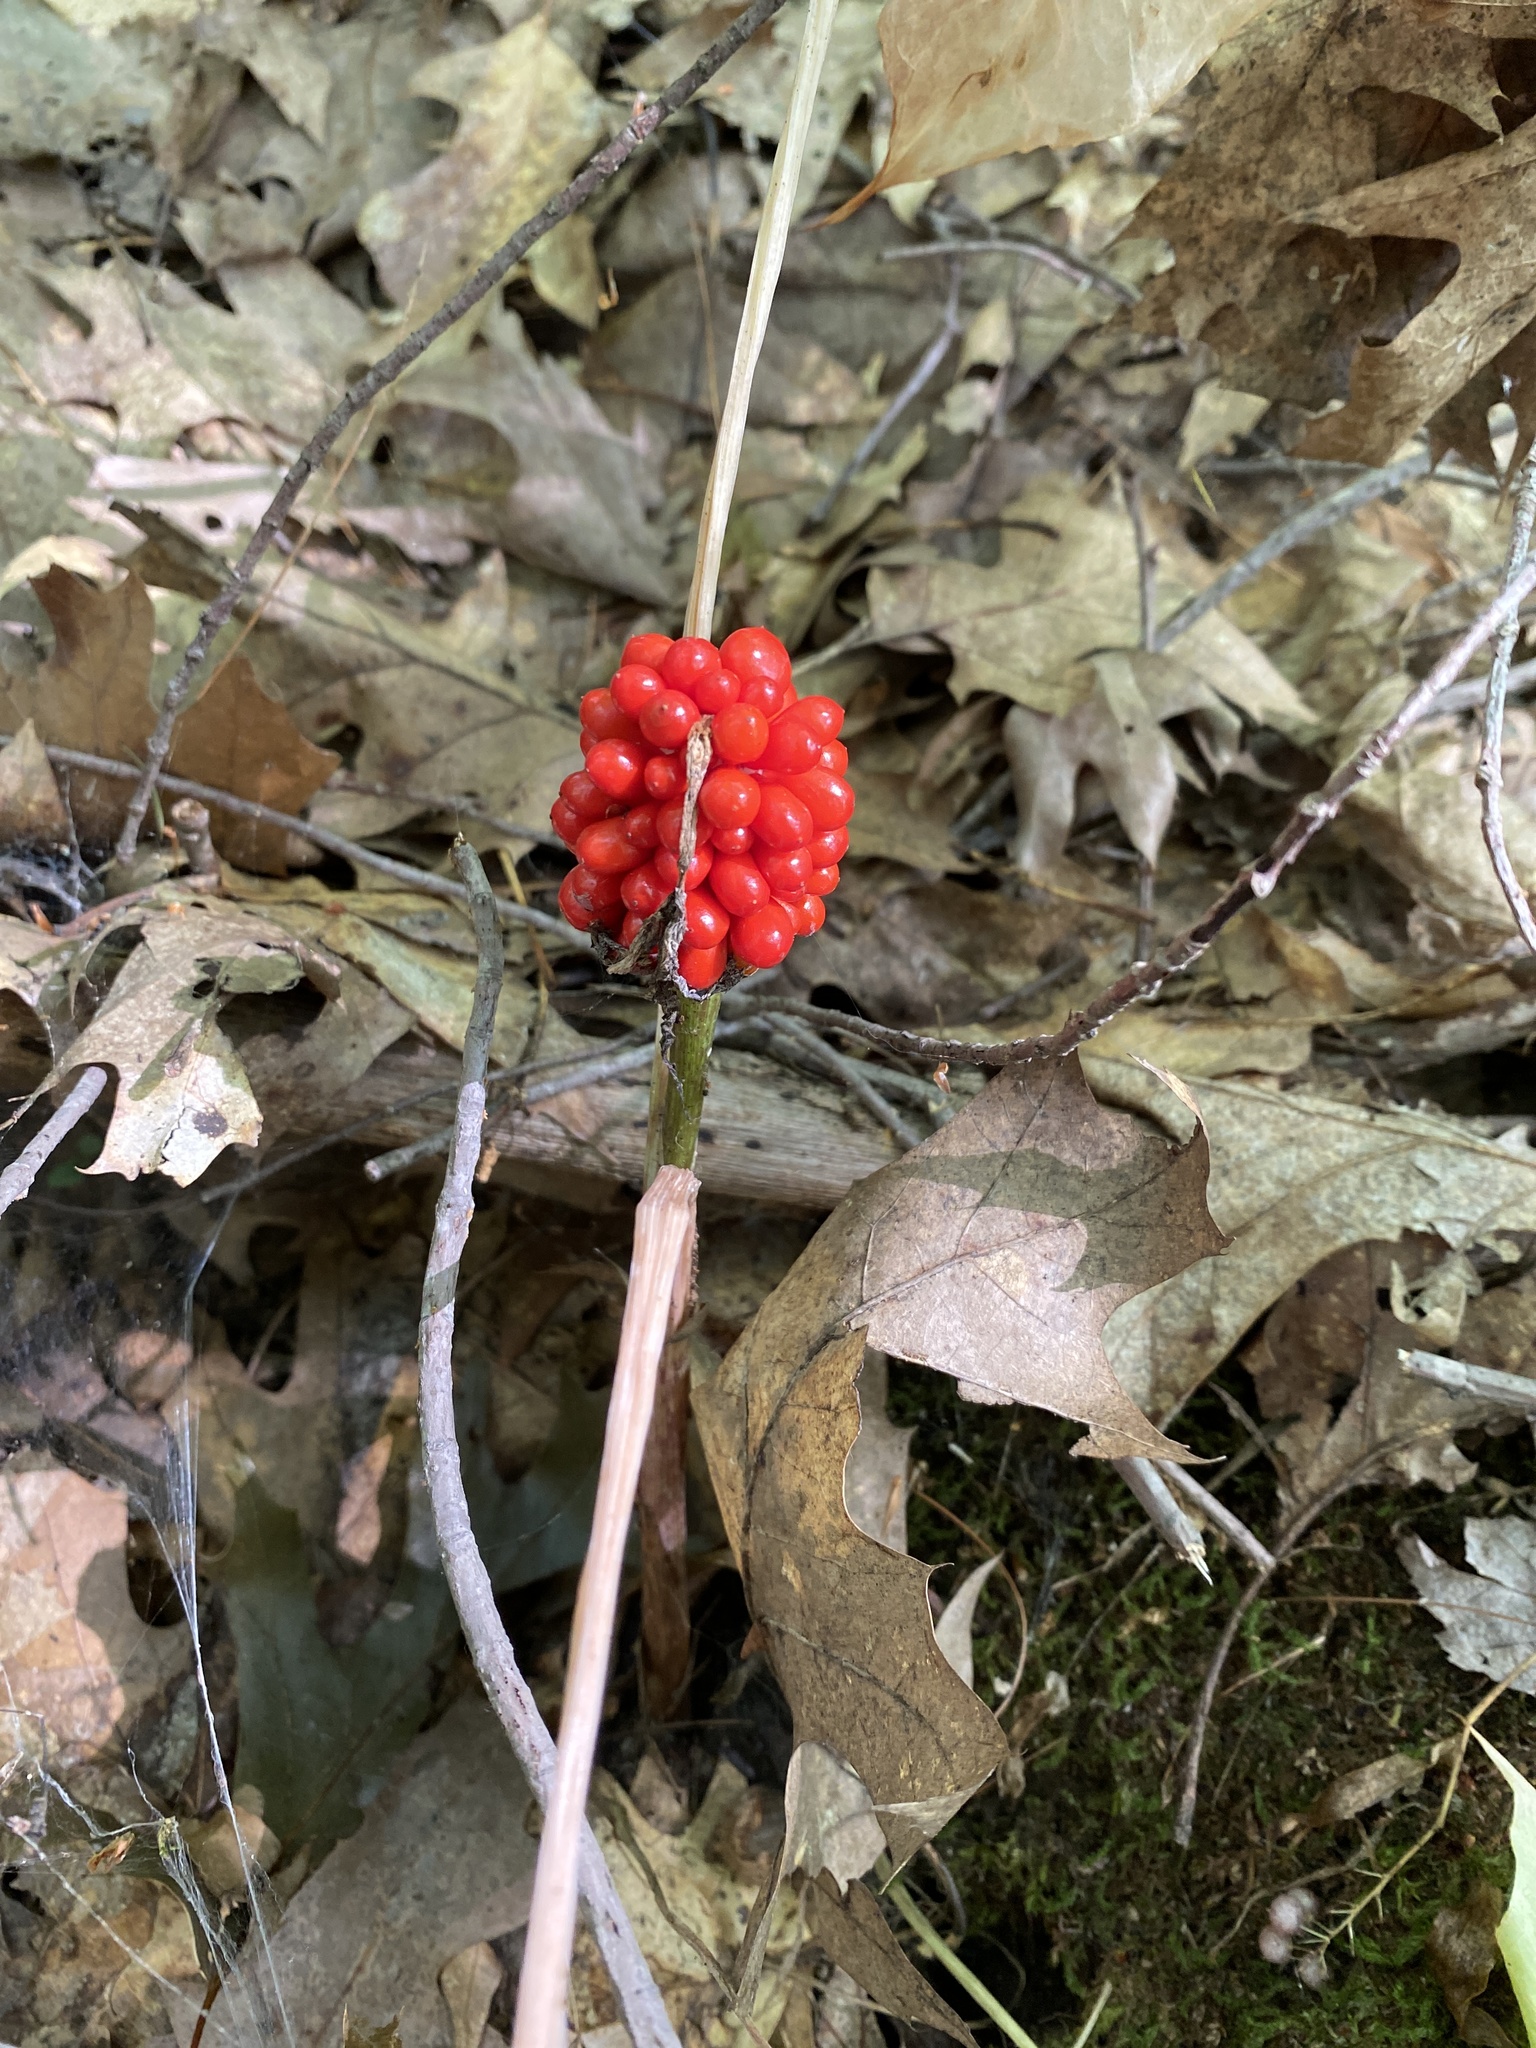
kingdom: Plantae
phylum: Tracheophyta
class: Liliopsida
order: Alismatales
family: Araceae
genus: Arisaema
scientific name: Arisaema triphyllum
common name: Jack-in-the-pulpit
